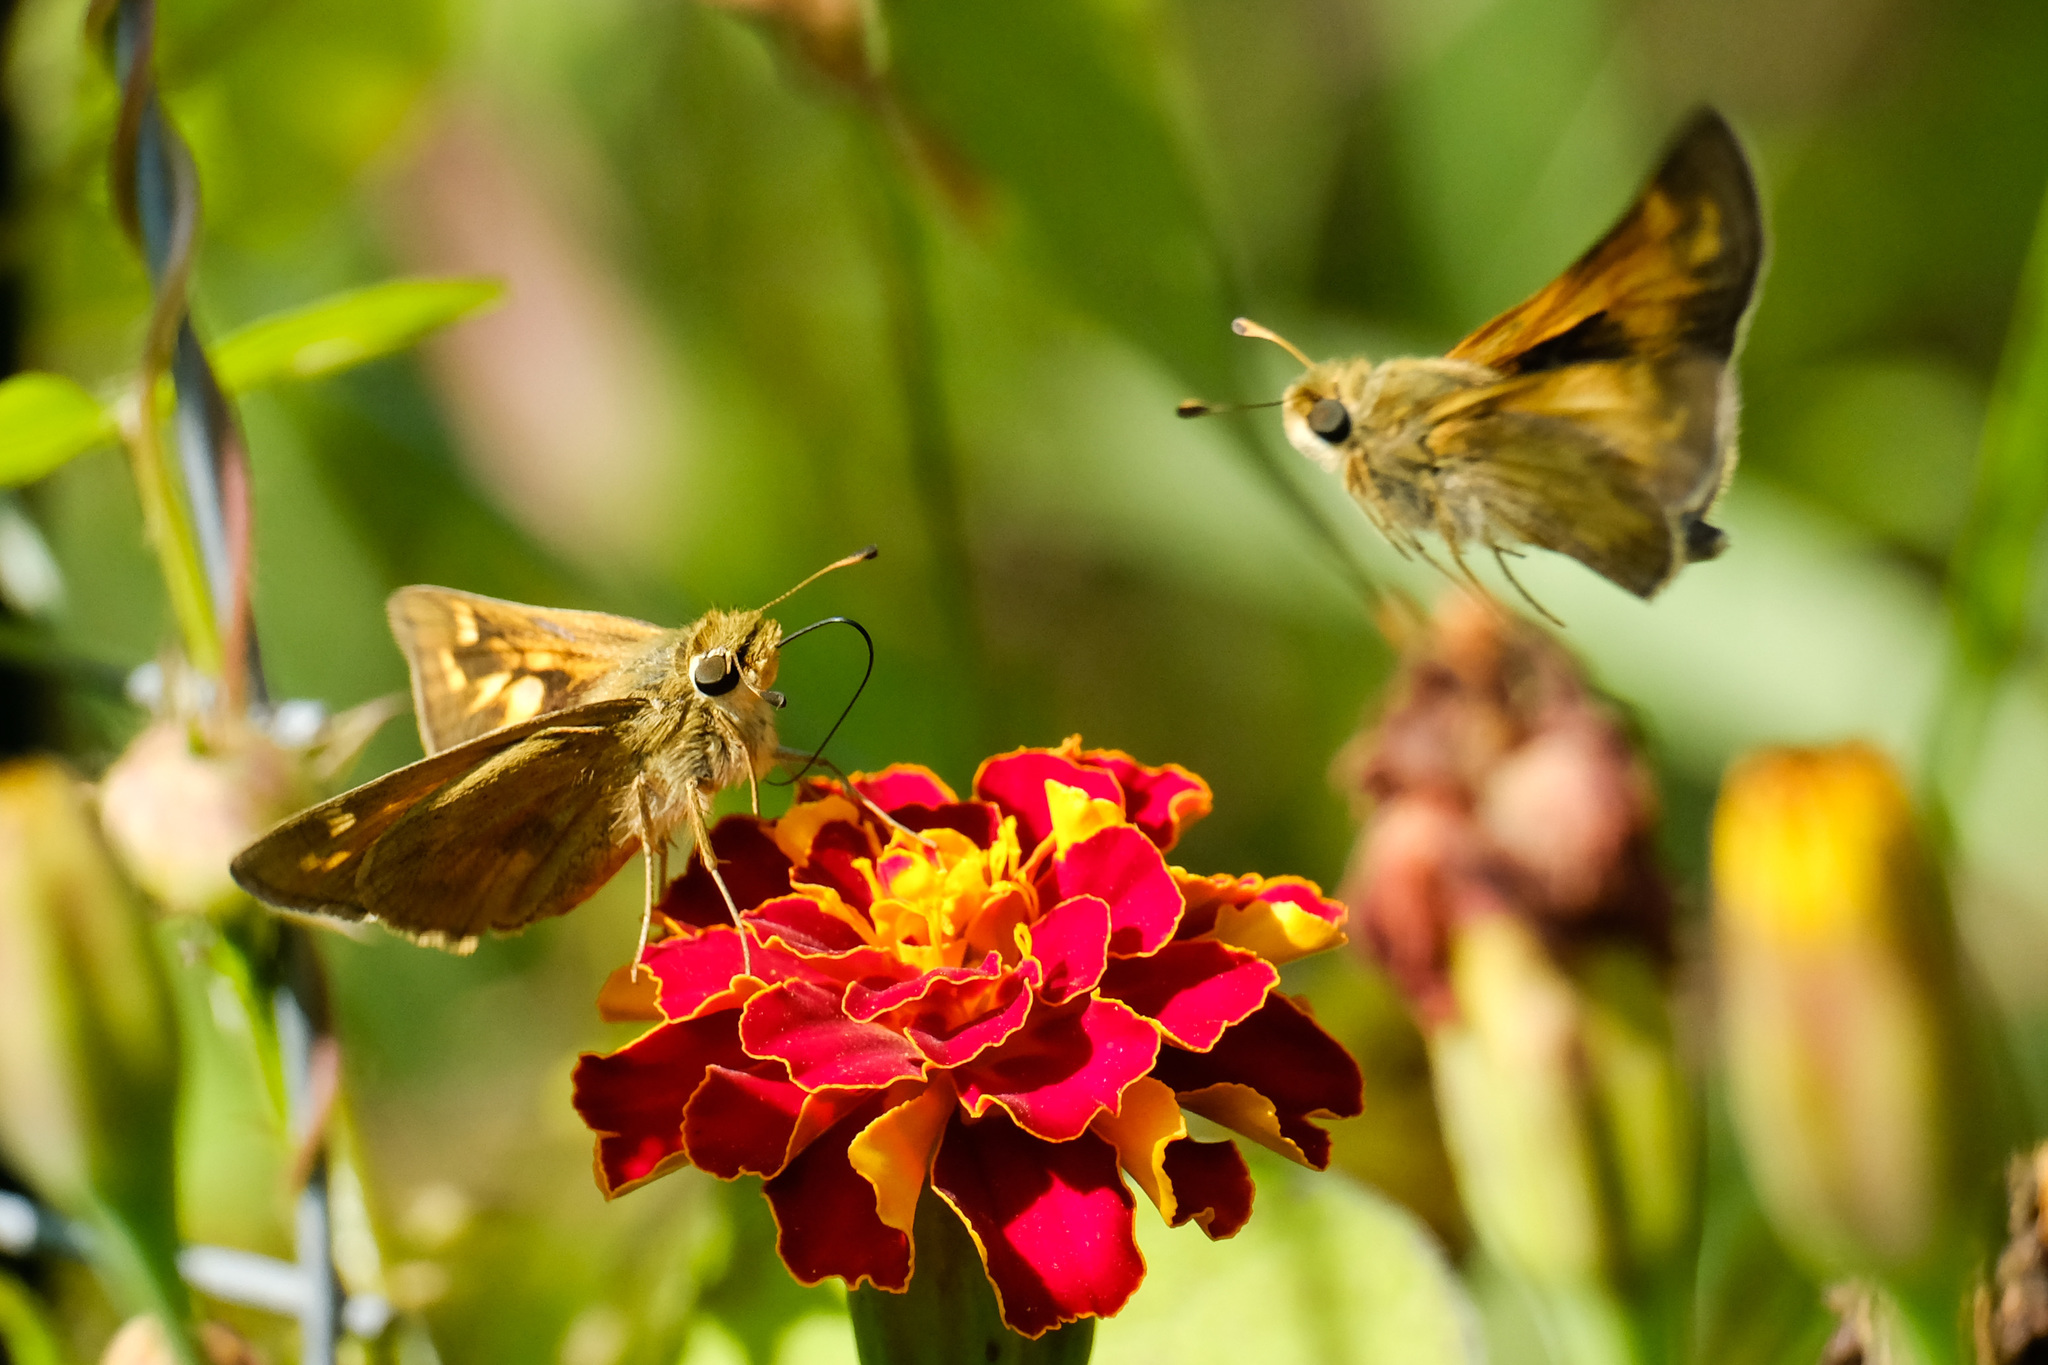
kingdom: Animalia
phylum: Arthropoda
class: Insecta
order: Lepidoptera
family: Hesperiidae
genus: Atalopedes
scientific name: Atalopedes
